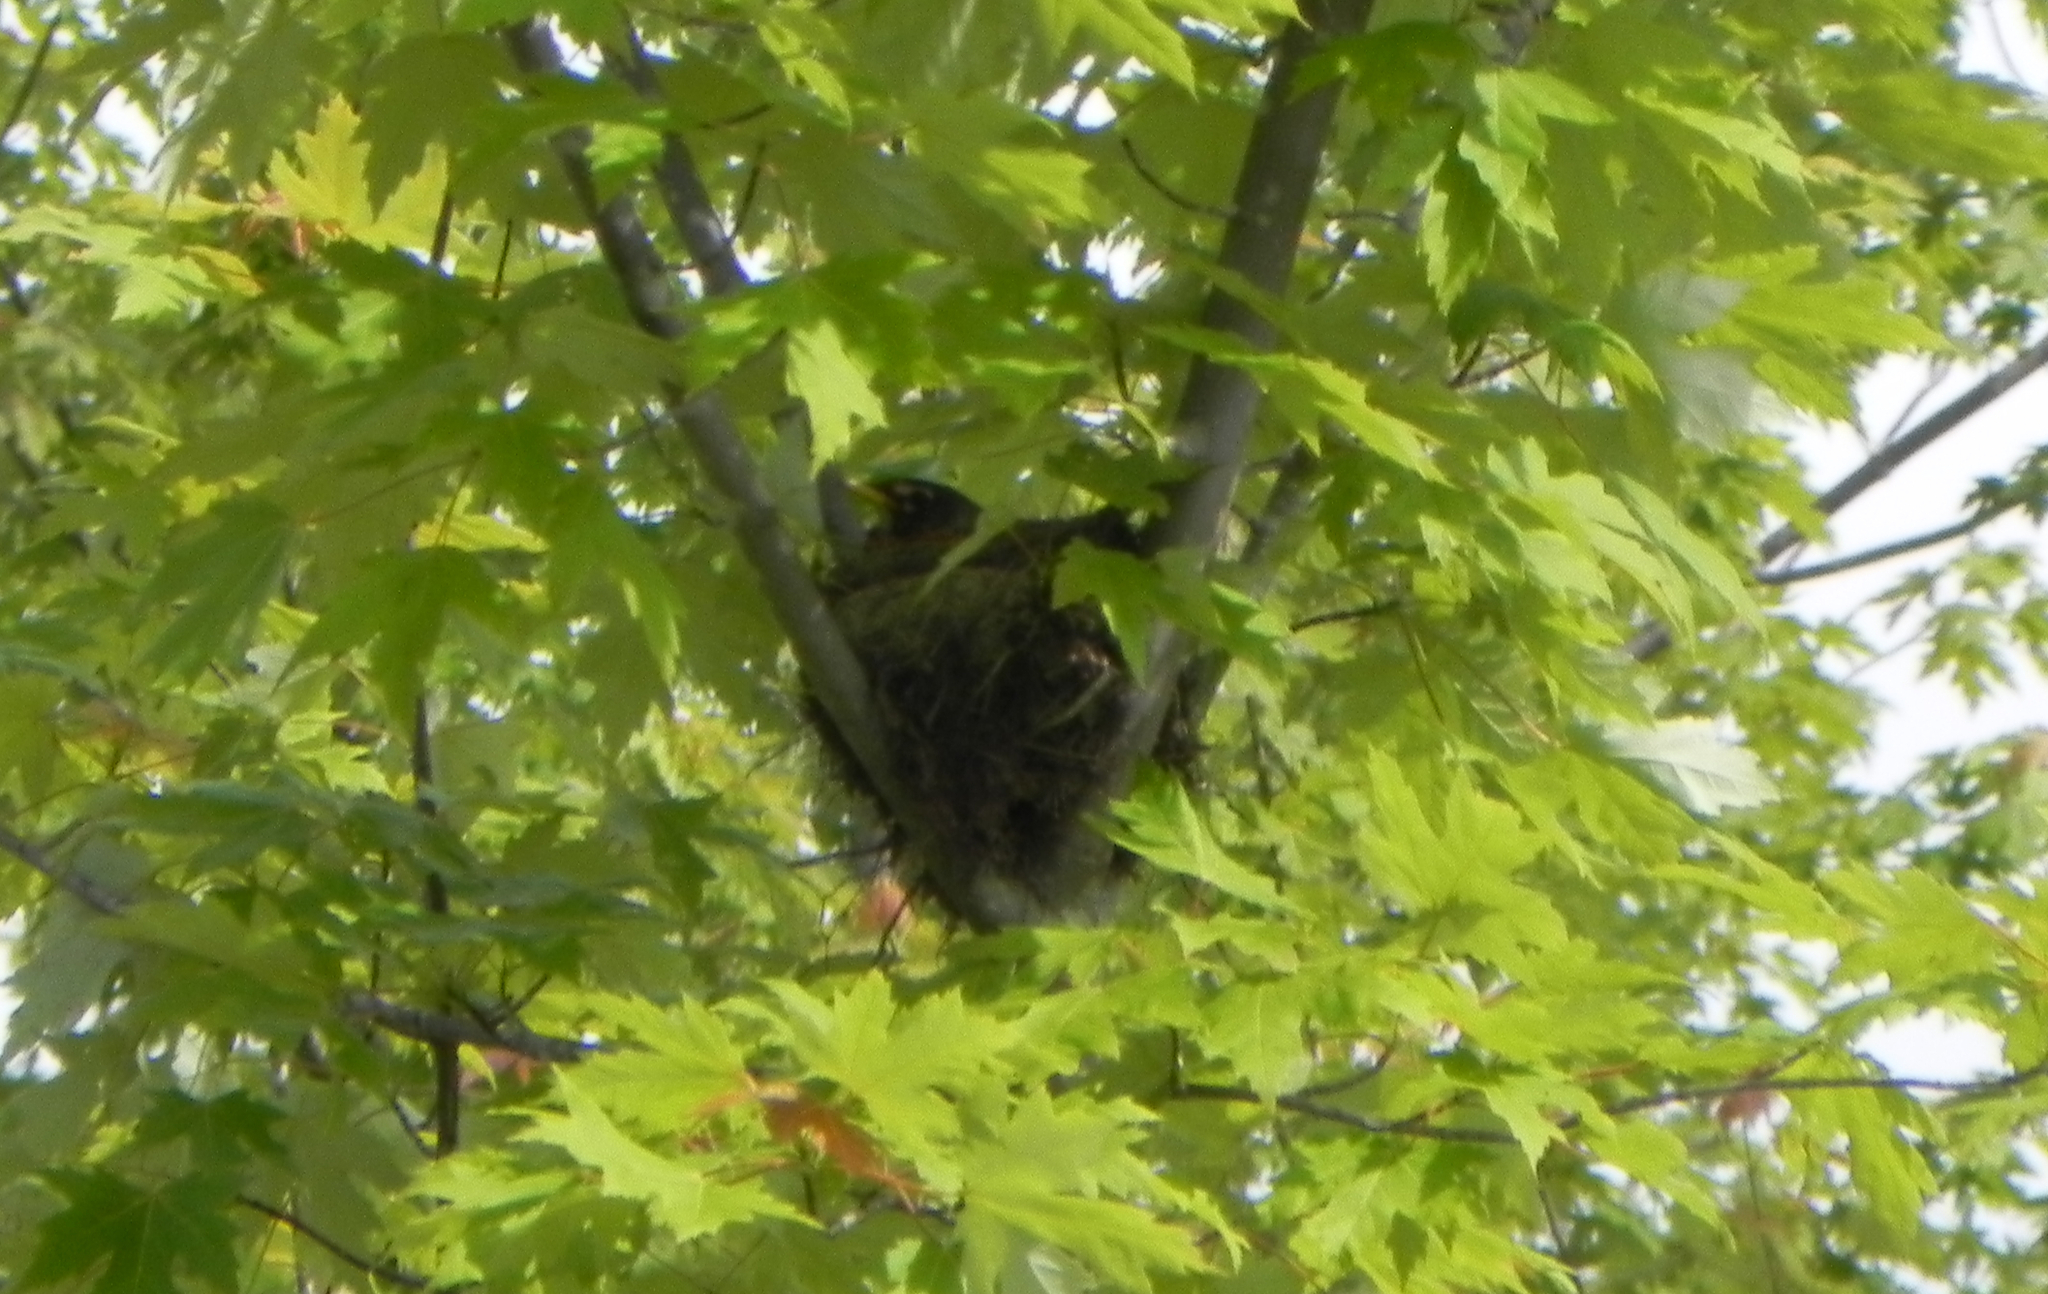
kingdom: Animalia
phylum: Chordata
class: Aves
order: Passeriformes
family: Turdidae
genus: Turdus
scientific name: Turdus migratorius
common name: American robin
